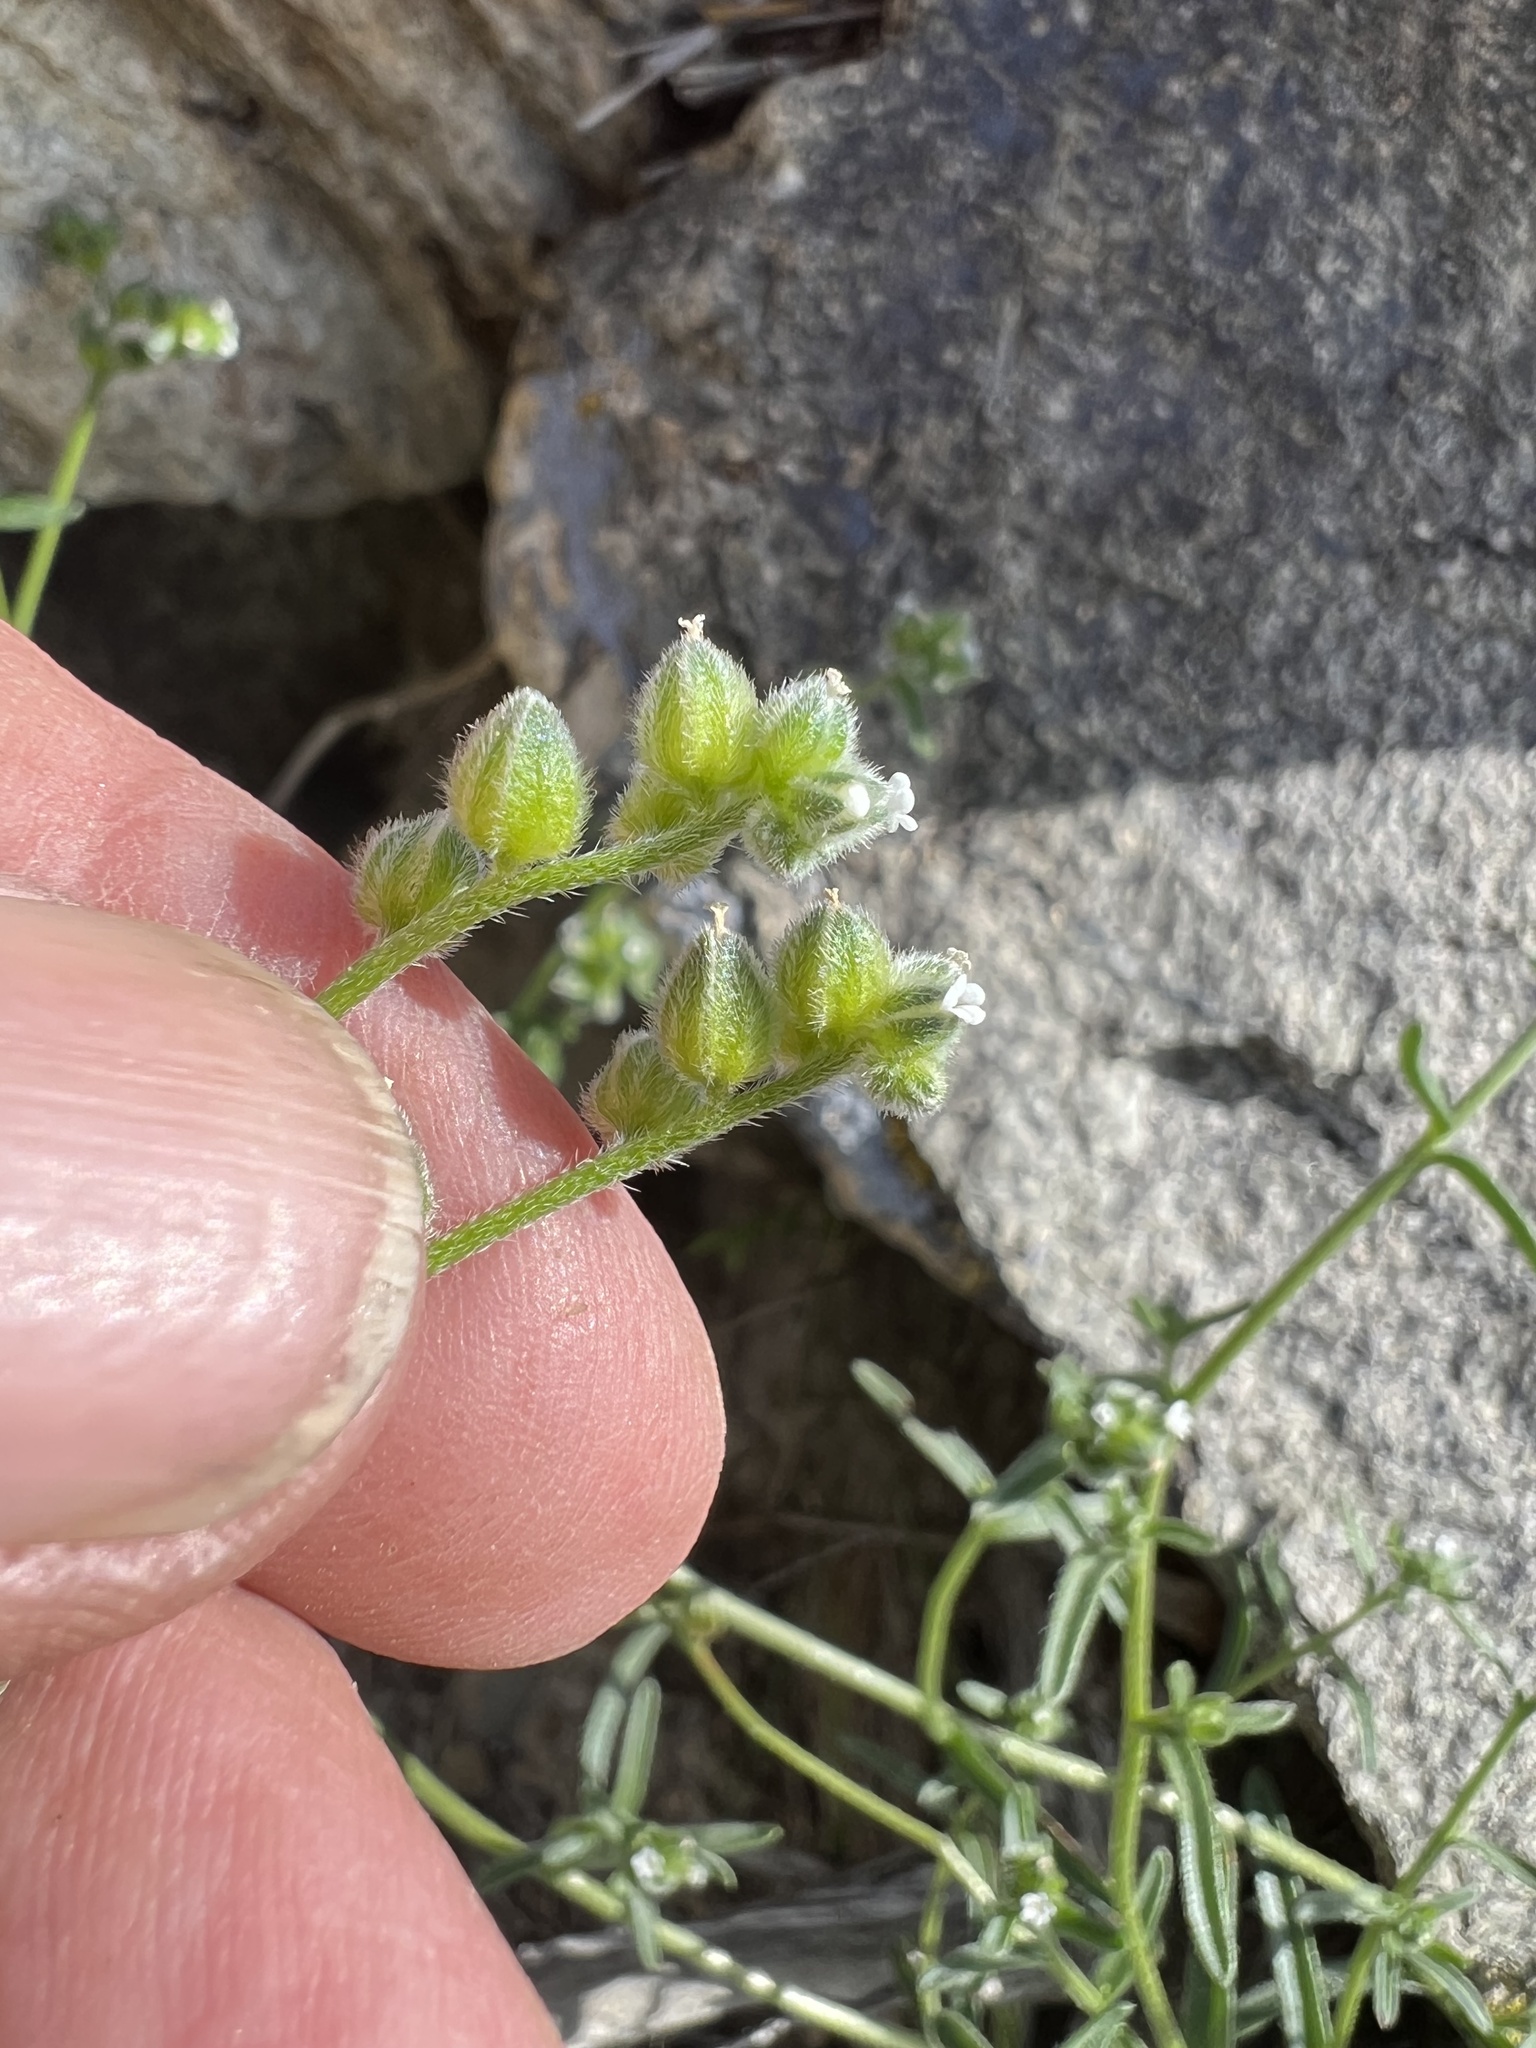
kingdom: Plantae
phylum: Tracheophyta
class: Magnoliopsida
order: Boraginales
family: Boraginaceae
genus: Cryptantha
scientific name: Cryptantha pterocarya
